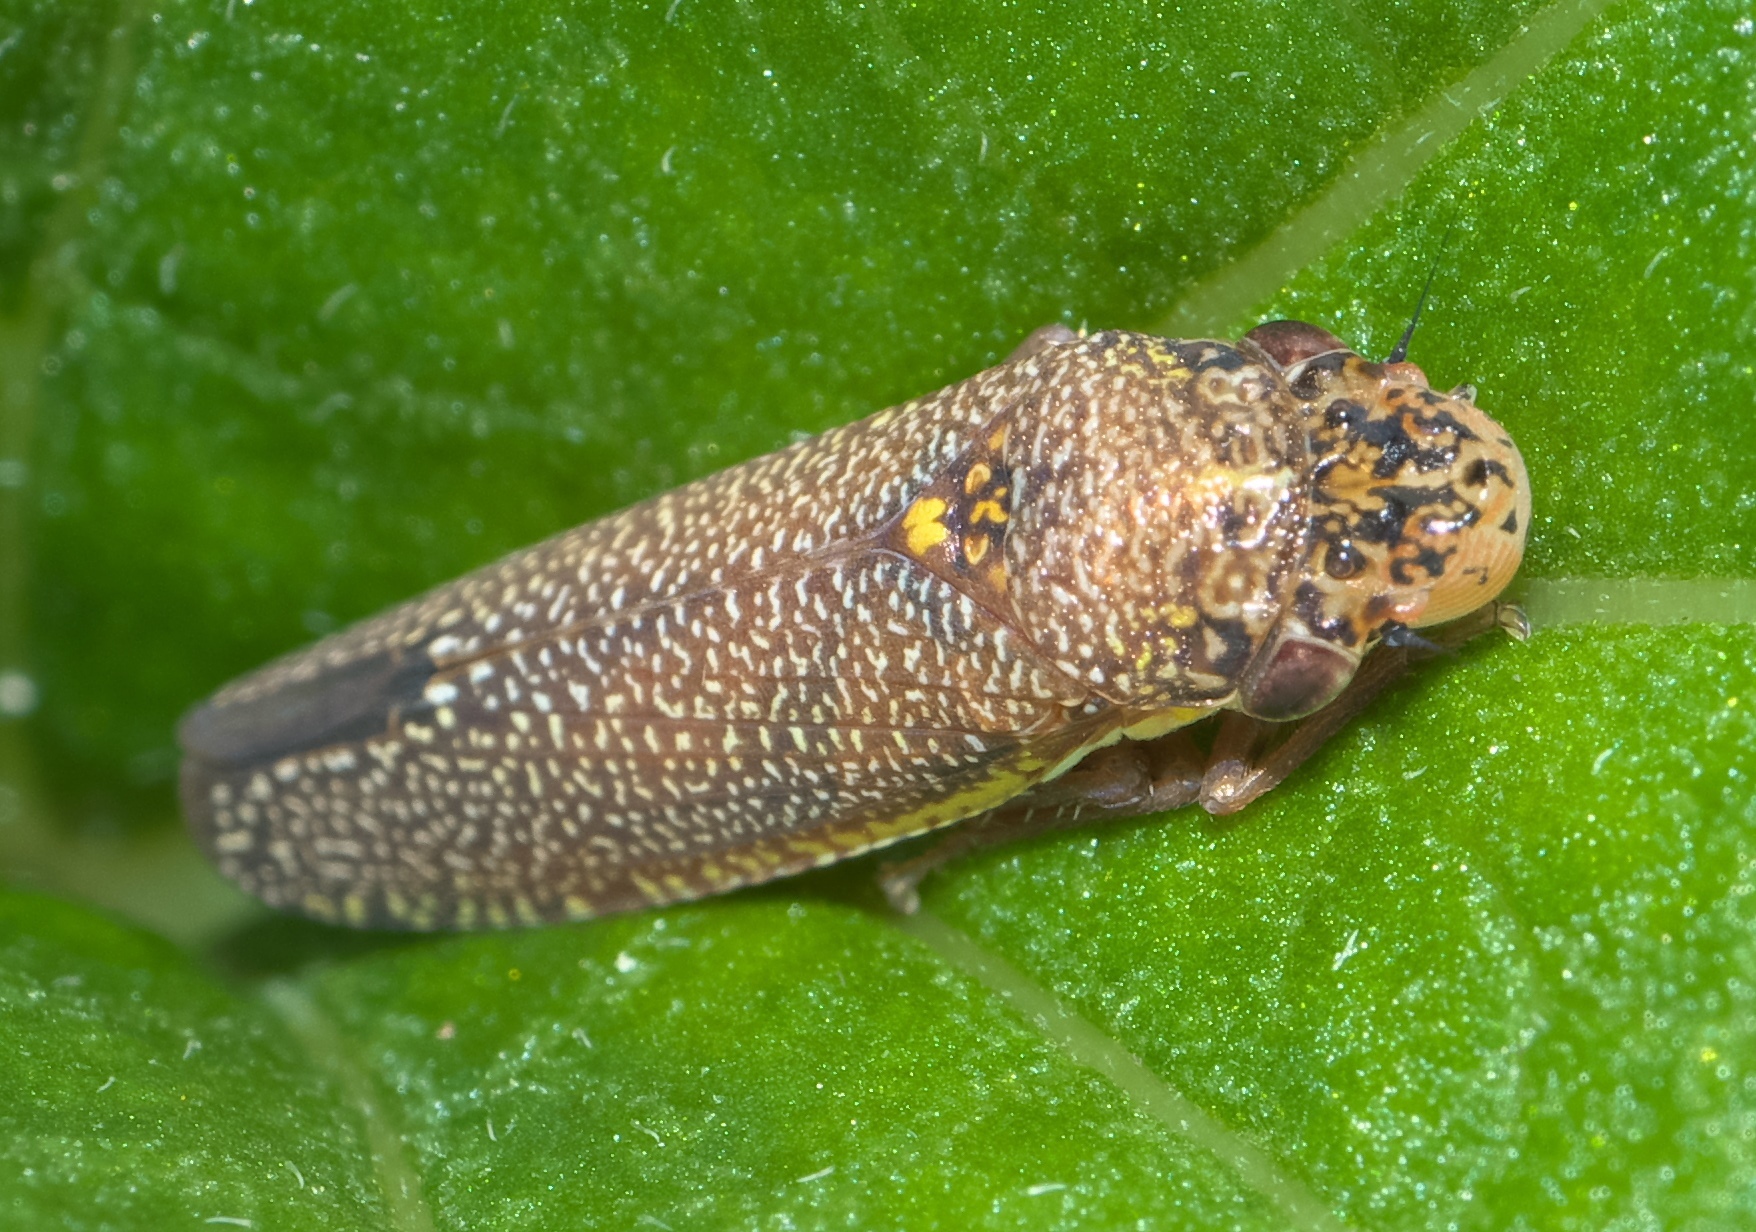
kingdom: Animalia
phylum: Arthropoda
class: Insecta
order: Hemiptera
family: Cicadellidae
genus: Paraulacizes
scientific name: Paraulacizes irrorata
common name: Speckled sharpshooter
